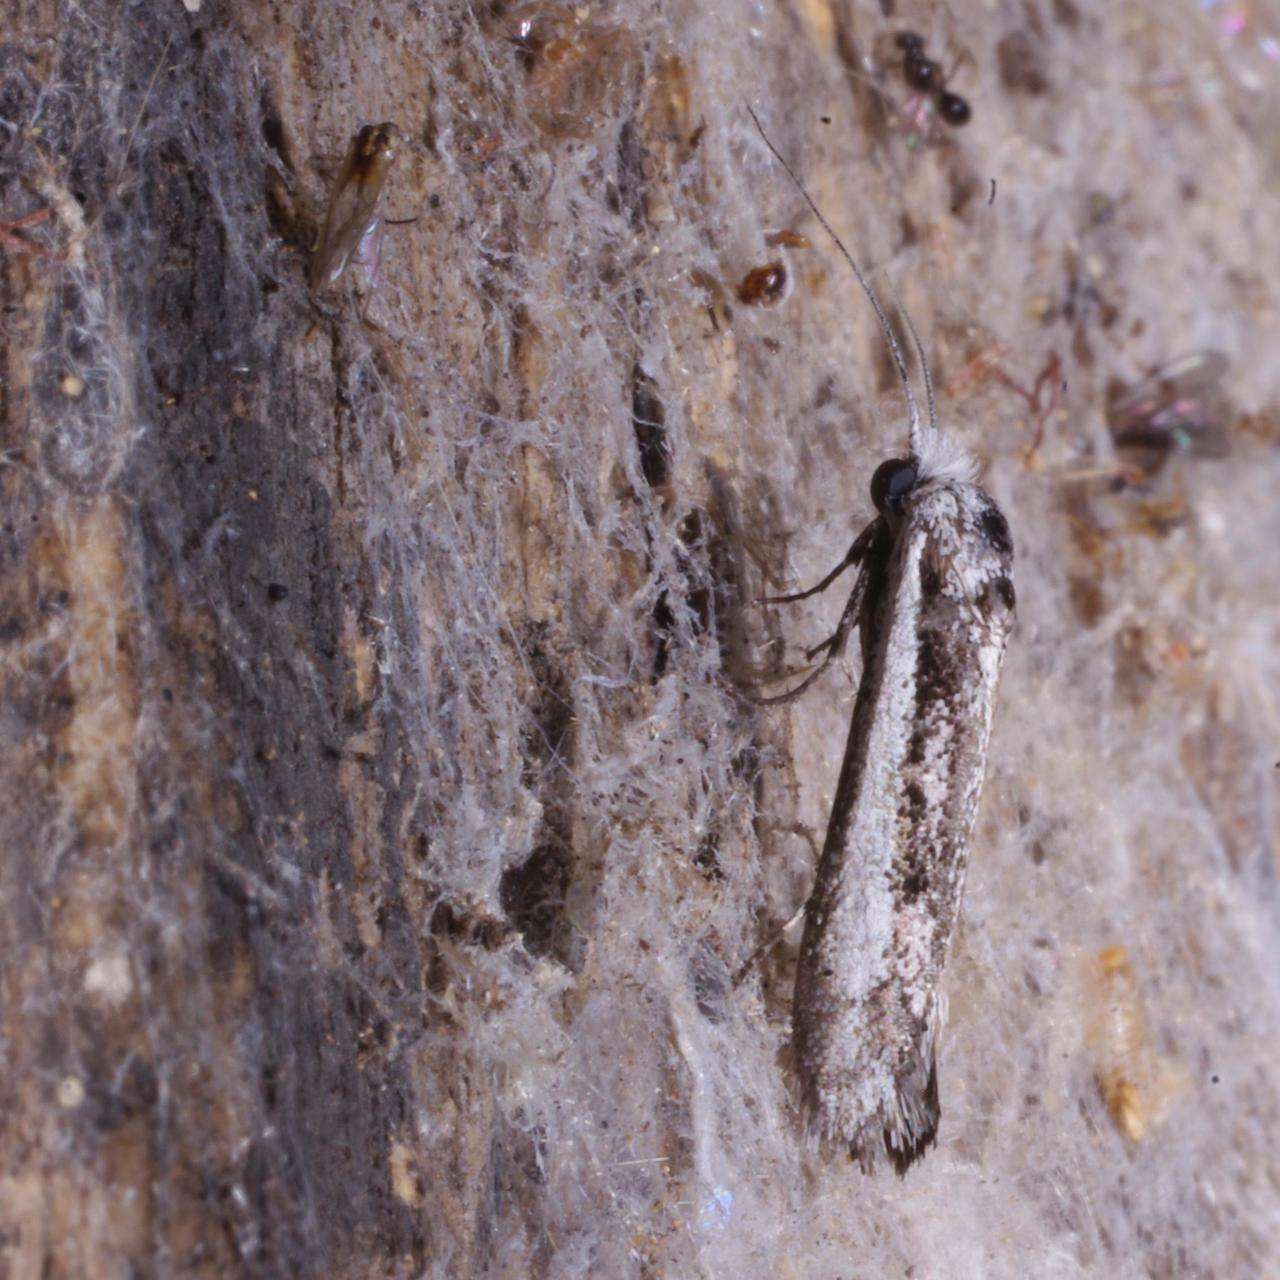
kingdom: Animalia
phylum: Arthropoda
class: Insecta
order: Lepidoptera
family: Tineidae
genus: Metapherna
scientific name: Metapherna isomacra
